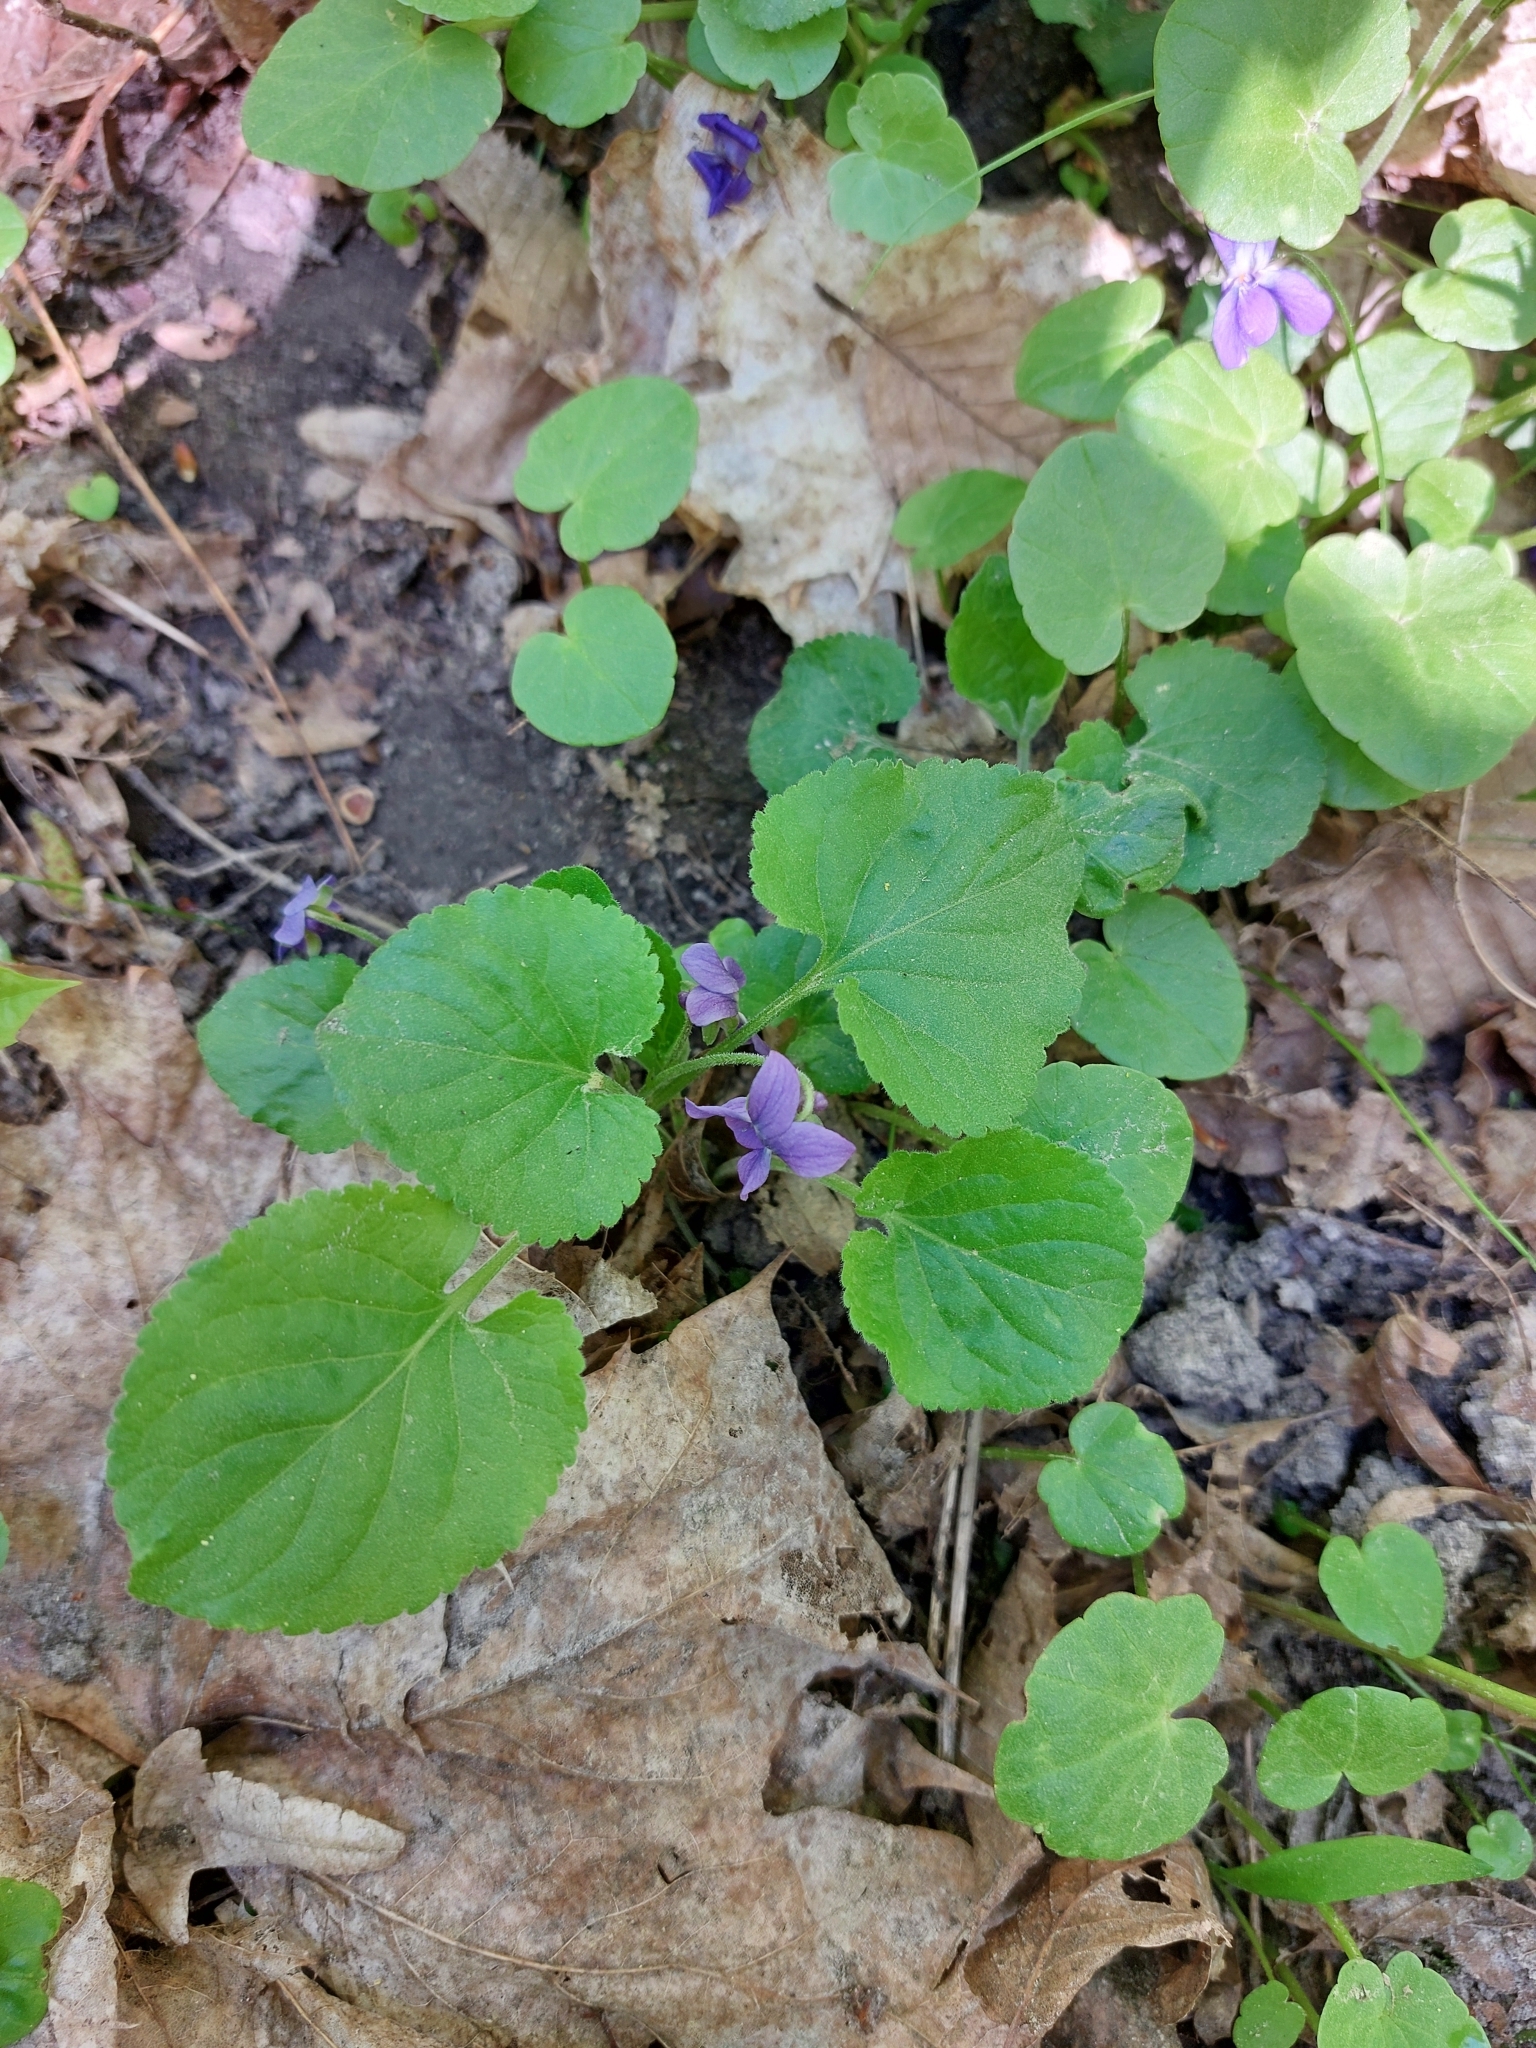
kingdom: Plantae
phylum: Tracheophyta
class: Magnoliopsida
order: Malpighiales
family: Violaceae
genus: Viola
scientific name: Viola odorata
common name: Sweet violet
